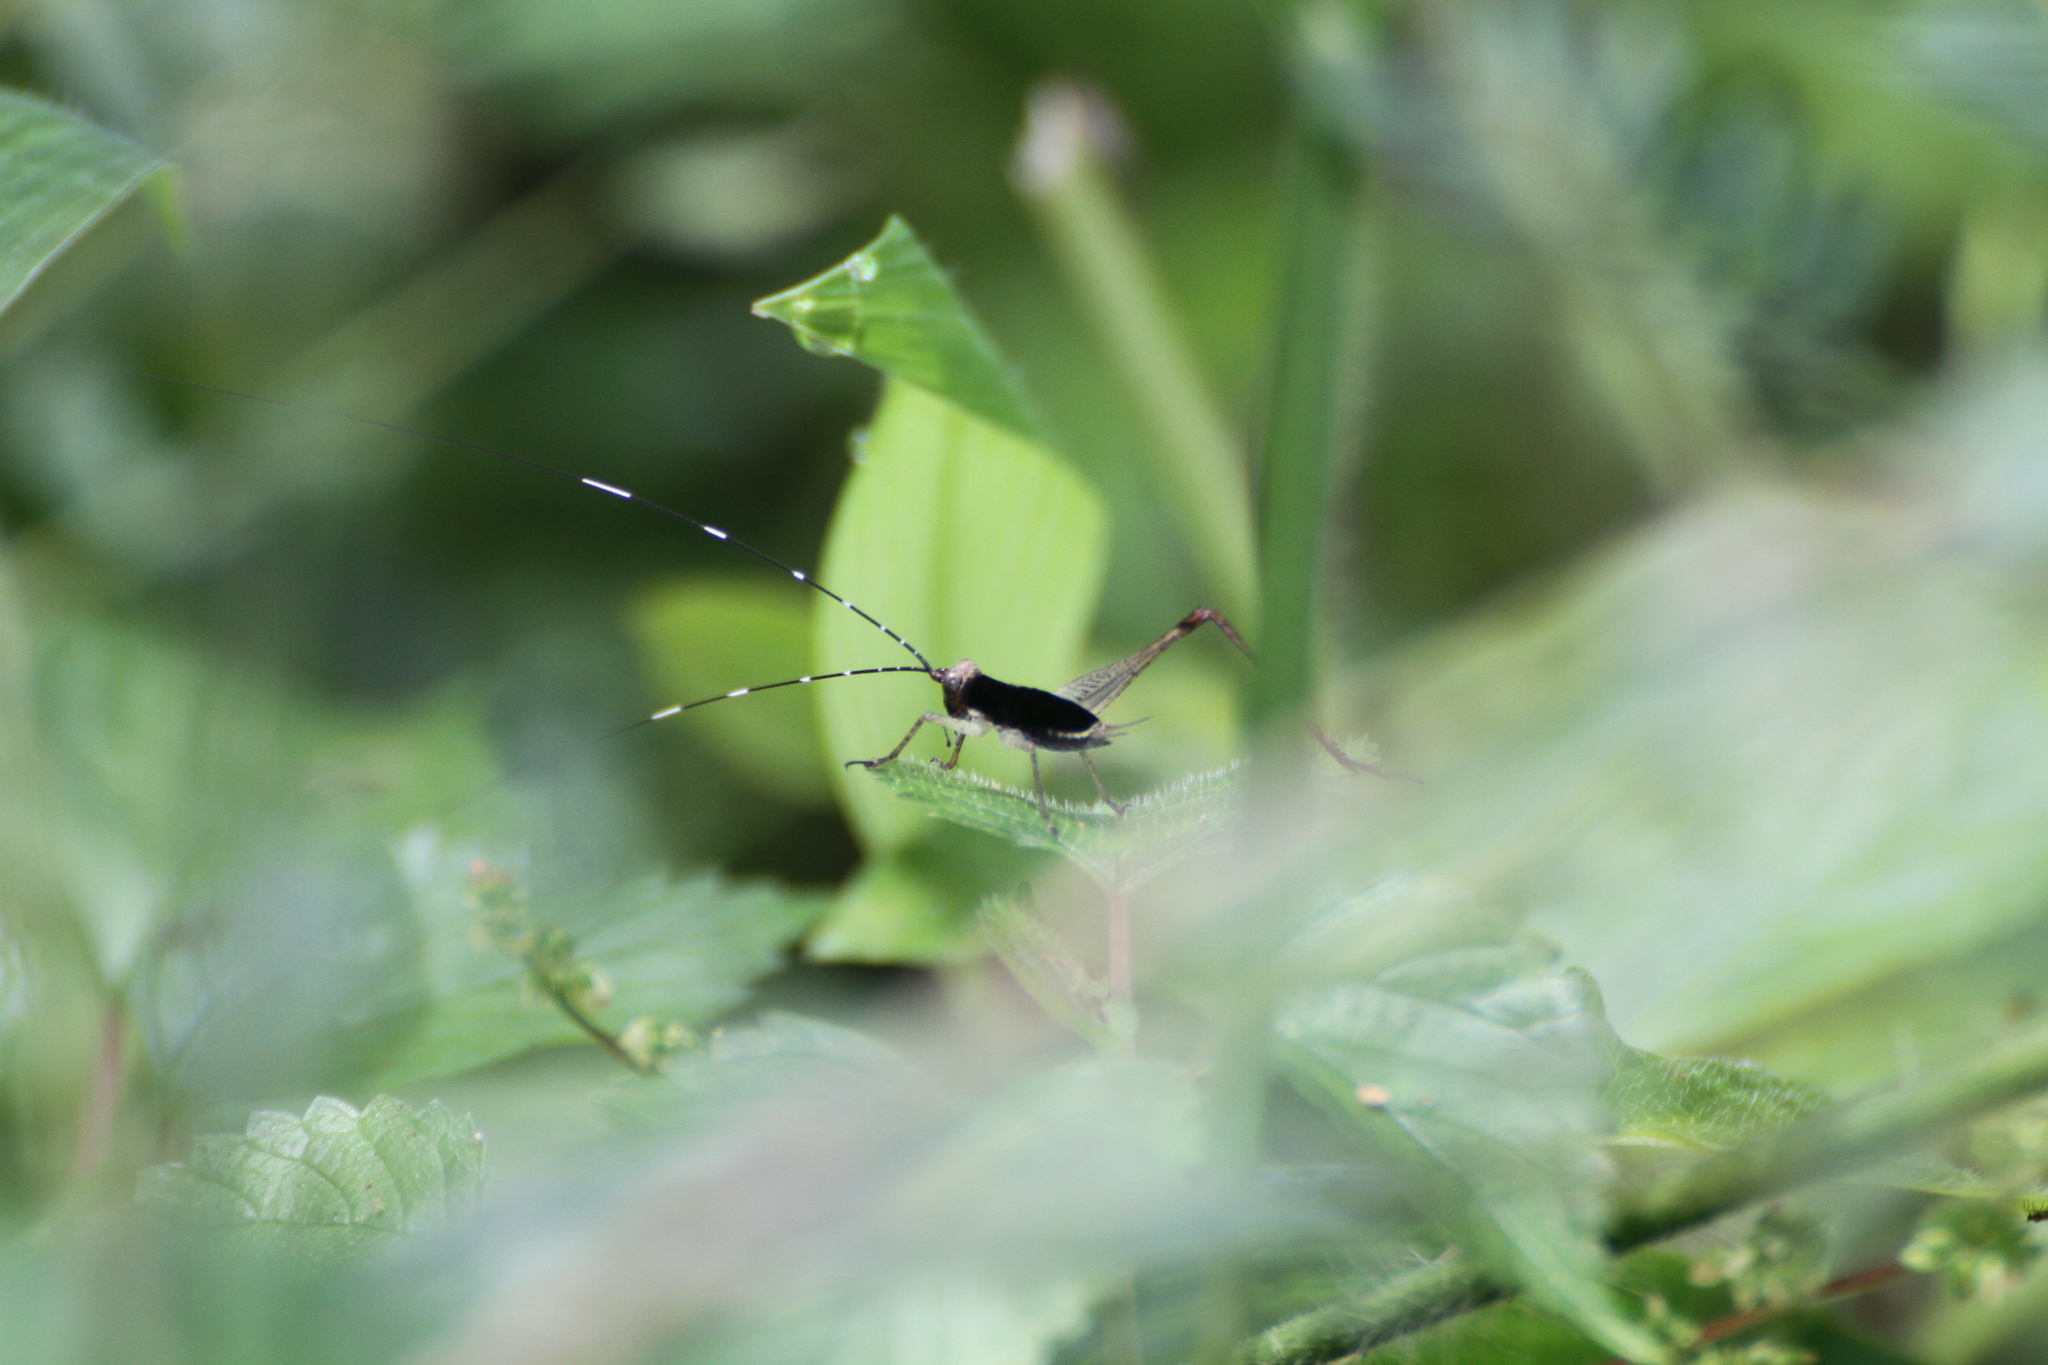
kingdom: Animalia
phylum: Arthropoda
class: Insecta
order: Orthoptera
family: Gryllidae
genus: Nisitrus
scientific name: Nisitrus insignis
